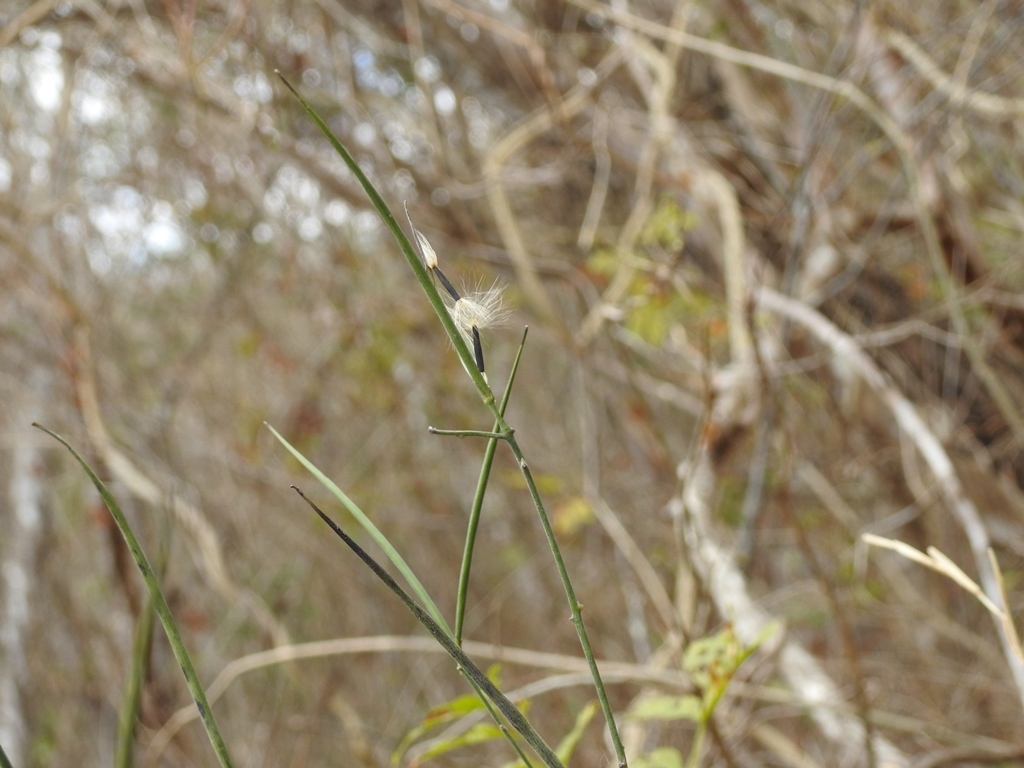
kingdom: Plantae
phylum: Tracheophyta
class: Magnoliopsida
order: Gentianales
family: Apocynaceae
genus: Haplophyton
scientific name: Haplophyton cimicidum
